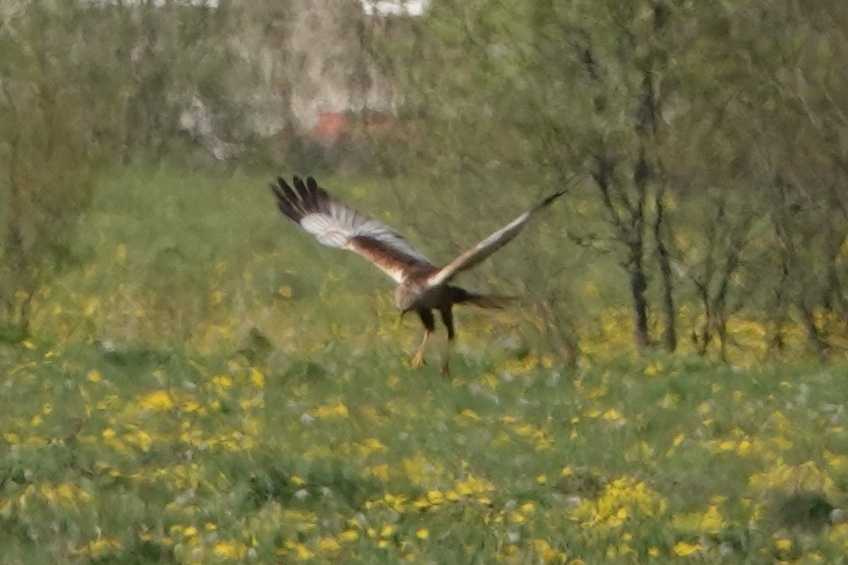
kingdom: Animalia
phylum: Chordata
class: Aves
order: Accipitriformes
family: Accipitridae
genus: Circus
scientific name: Circus aeruginosus
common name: Western marsh harrier
